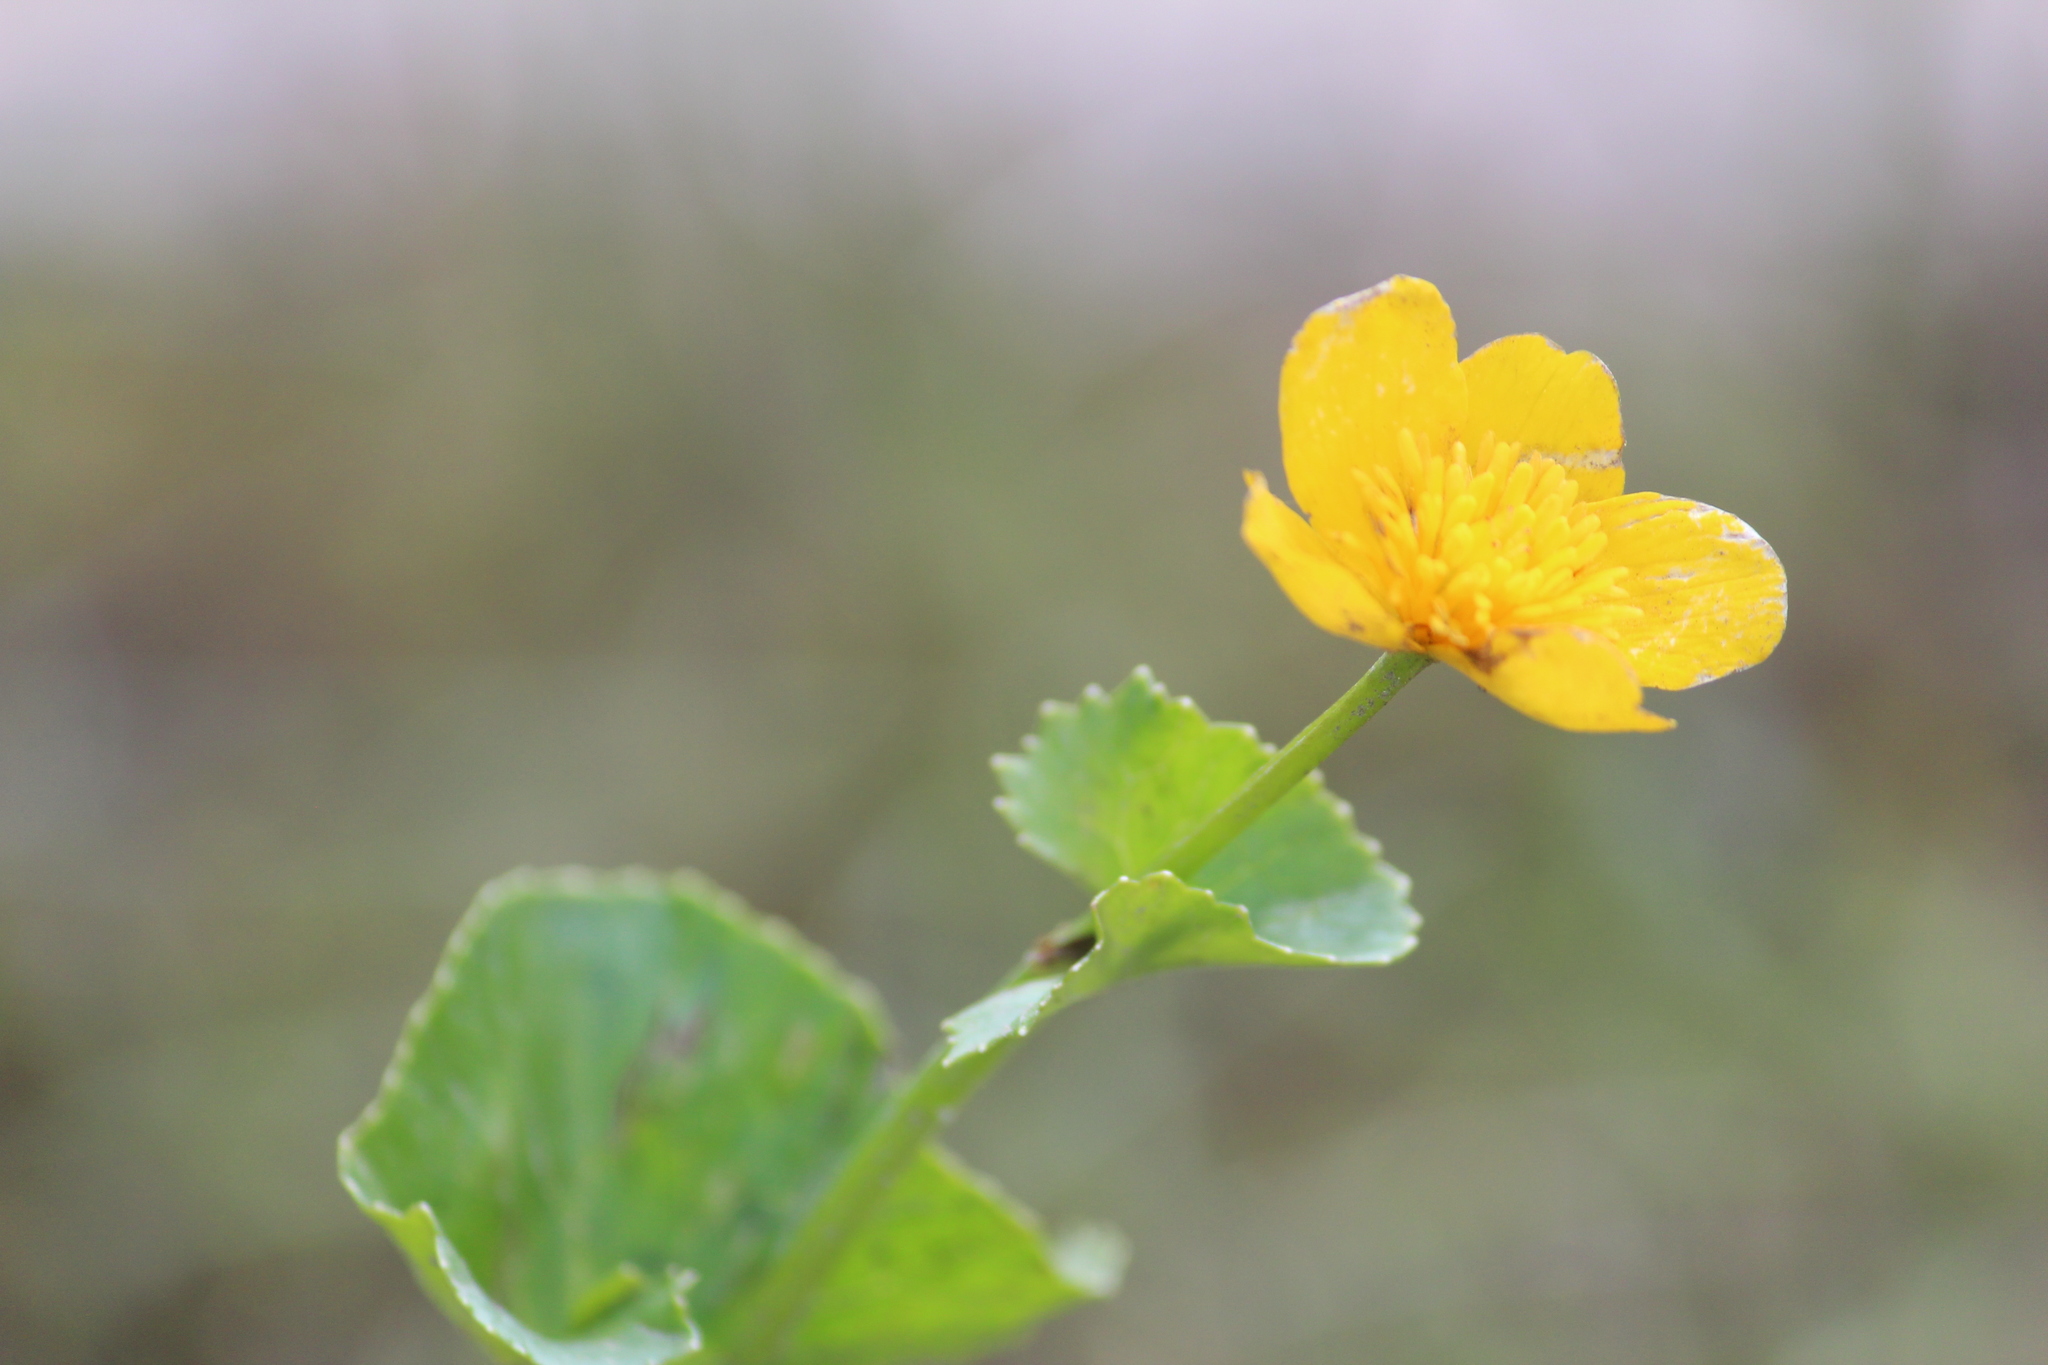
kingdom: Plantae
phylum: Tracheophyta
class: Magnoliopsida
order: Ranunculales
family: Ranunculaceae
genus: Caltha
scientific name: Caltha palustris
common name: Marsh marigold
